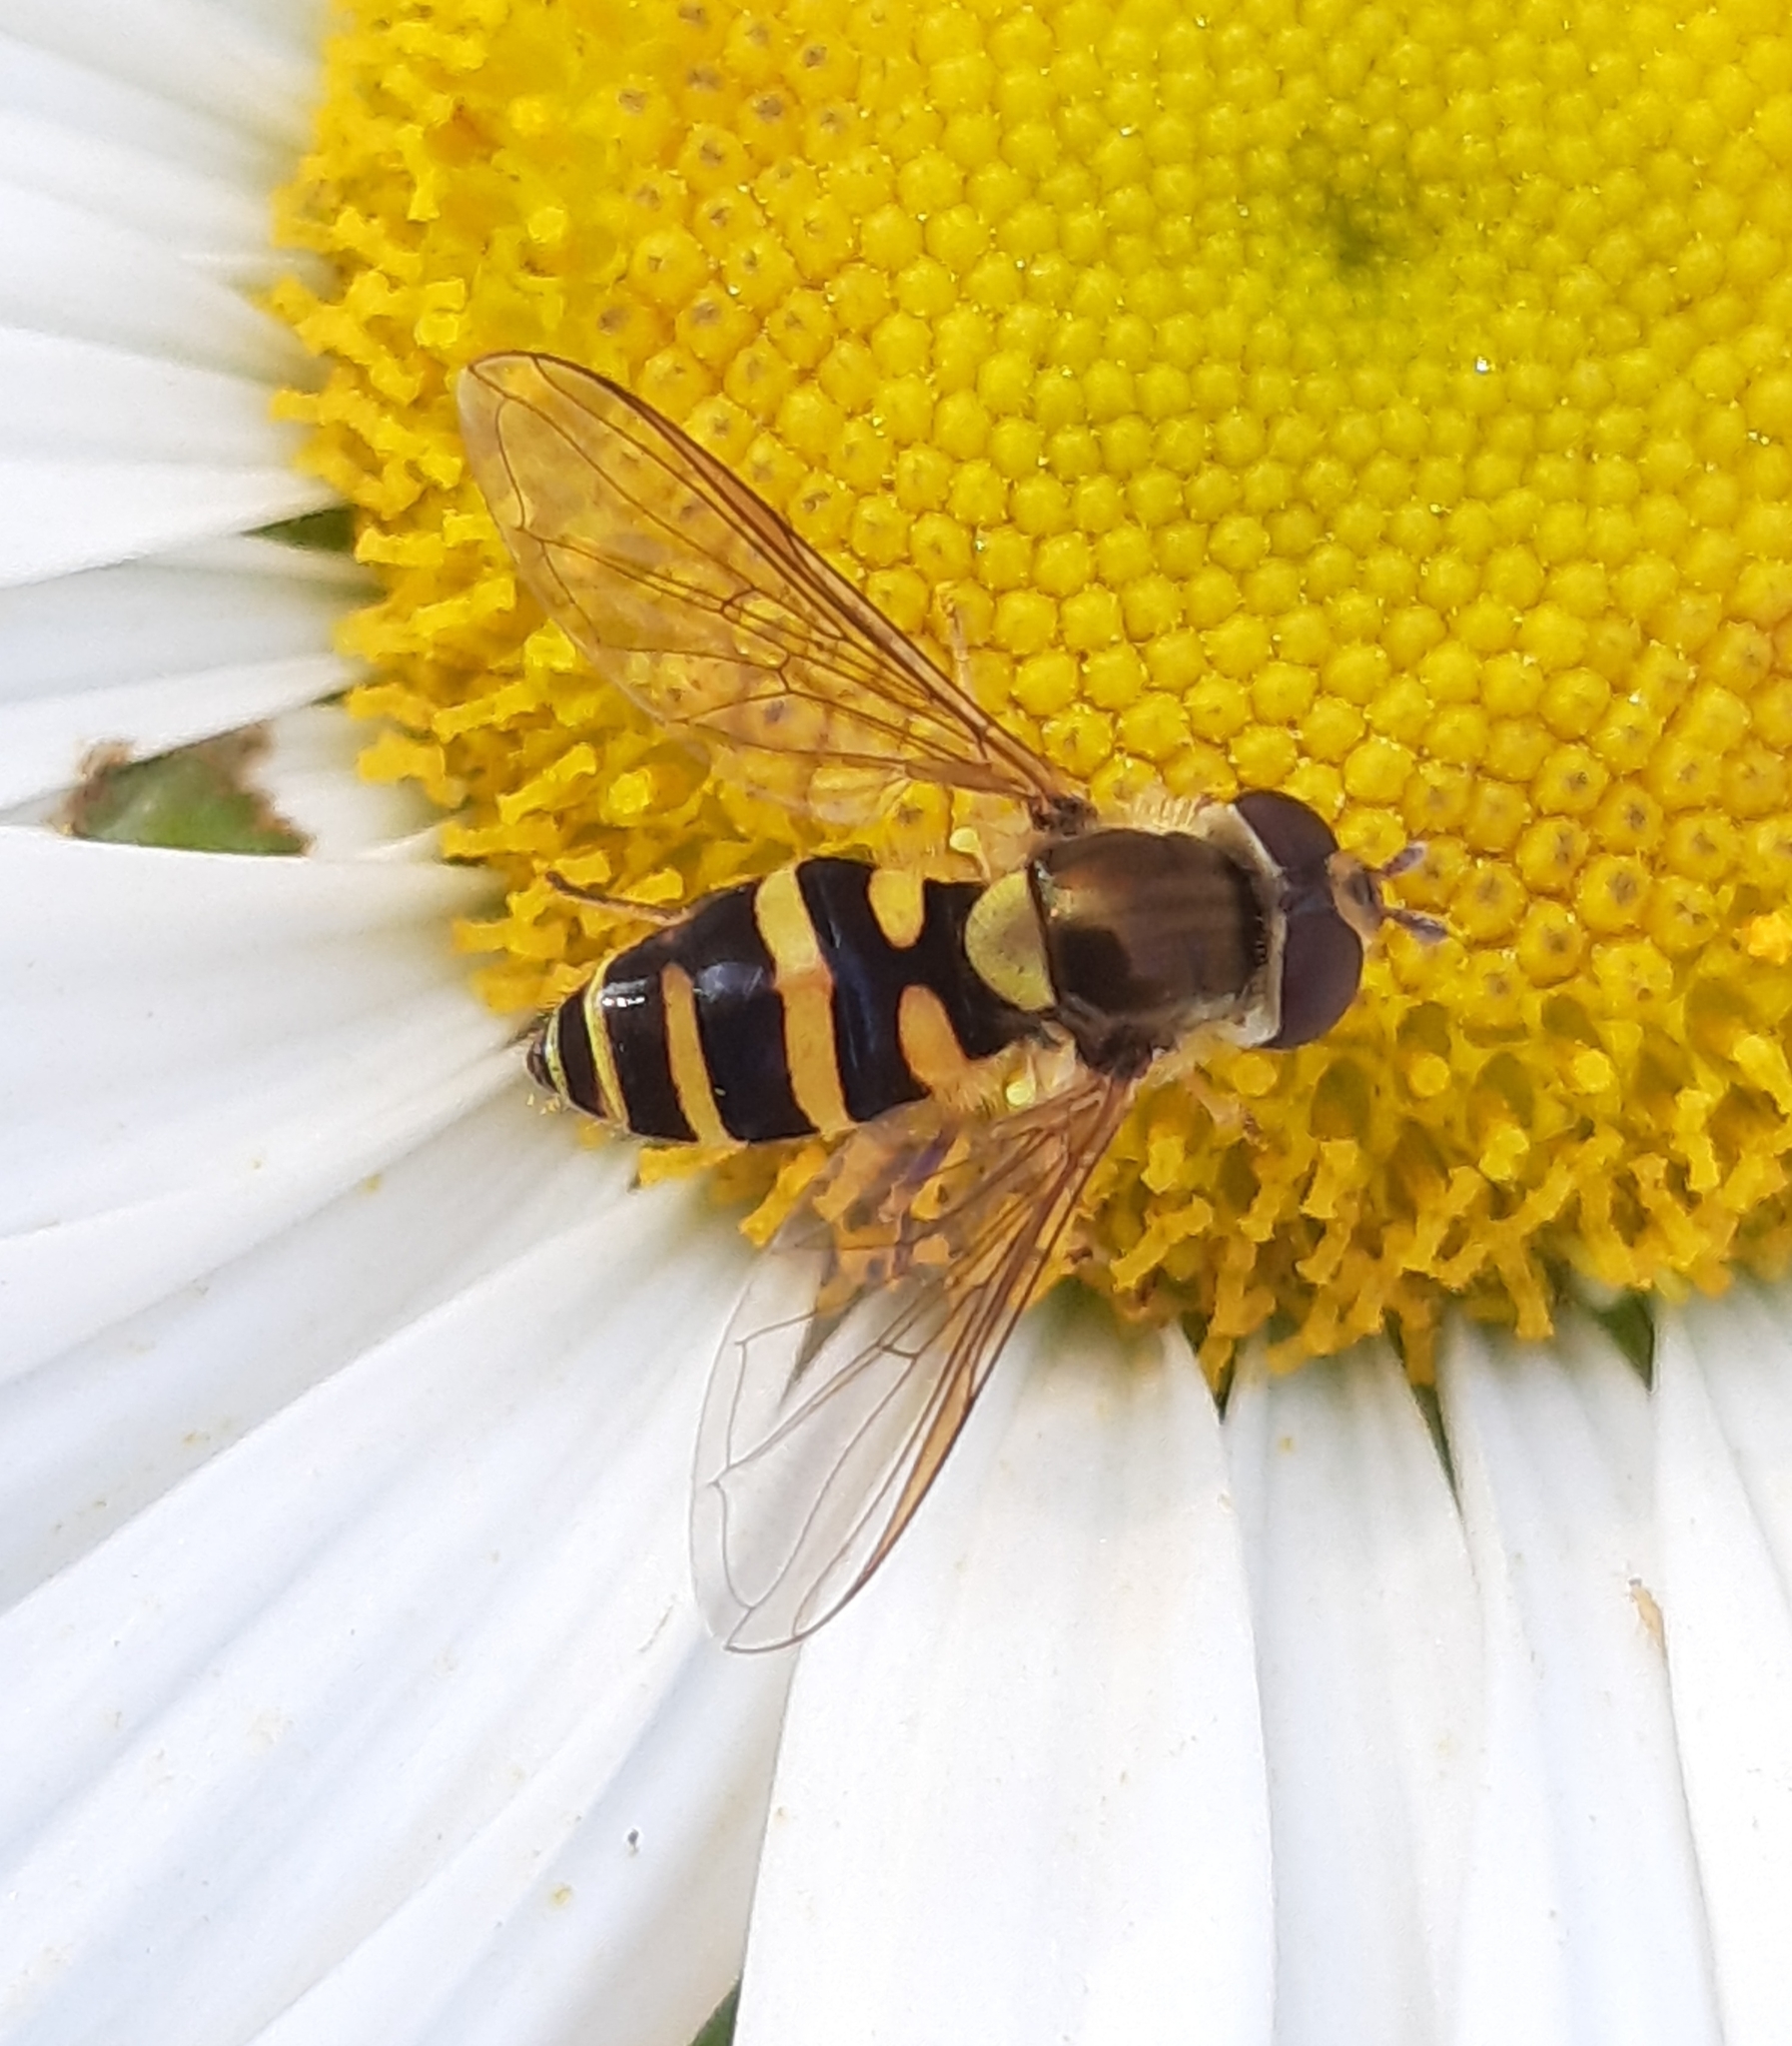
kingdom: Animalia
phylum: Arthropoda
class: Insecta
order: Diptera
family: Syrphidae
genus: Syrphus
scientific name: Syrphus
